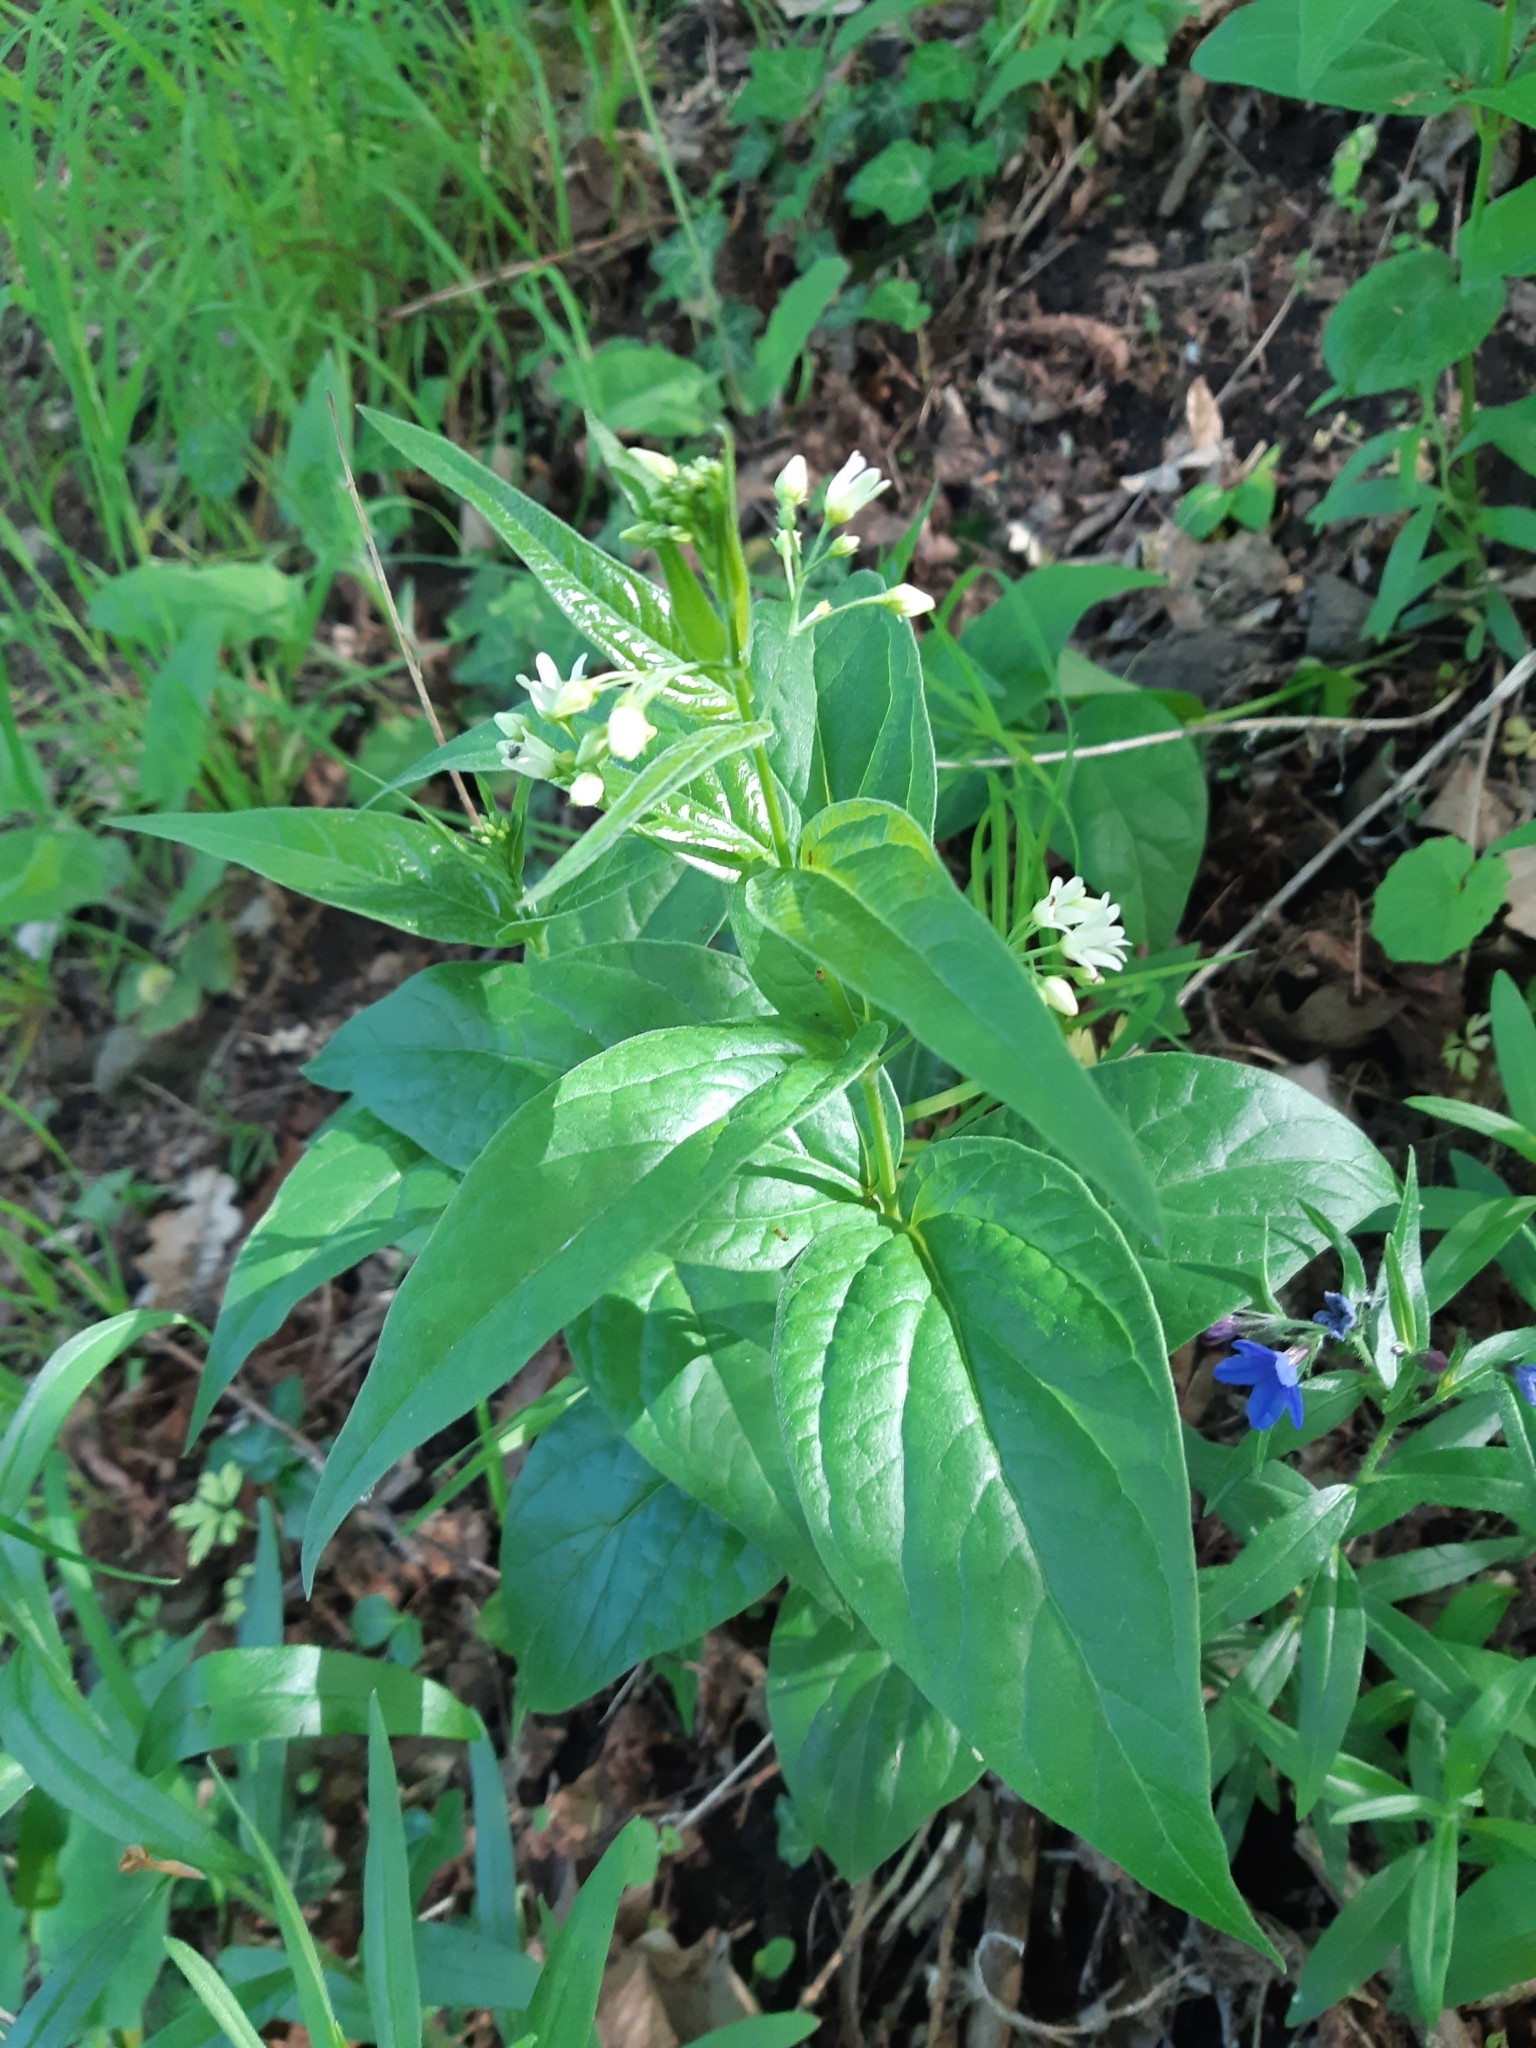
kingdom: Plantae
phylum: Tracheophyta
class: Magnoliopsida
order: Gentianales
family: Apocynaceae
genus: Vincetoxicum
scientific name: Vincetoxicum hirundinaria
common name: White swallowwort
